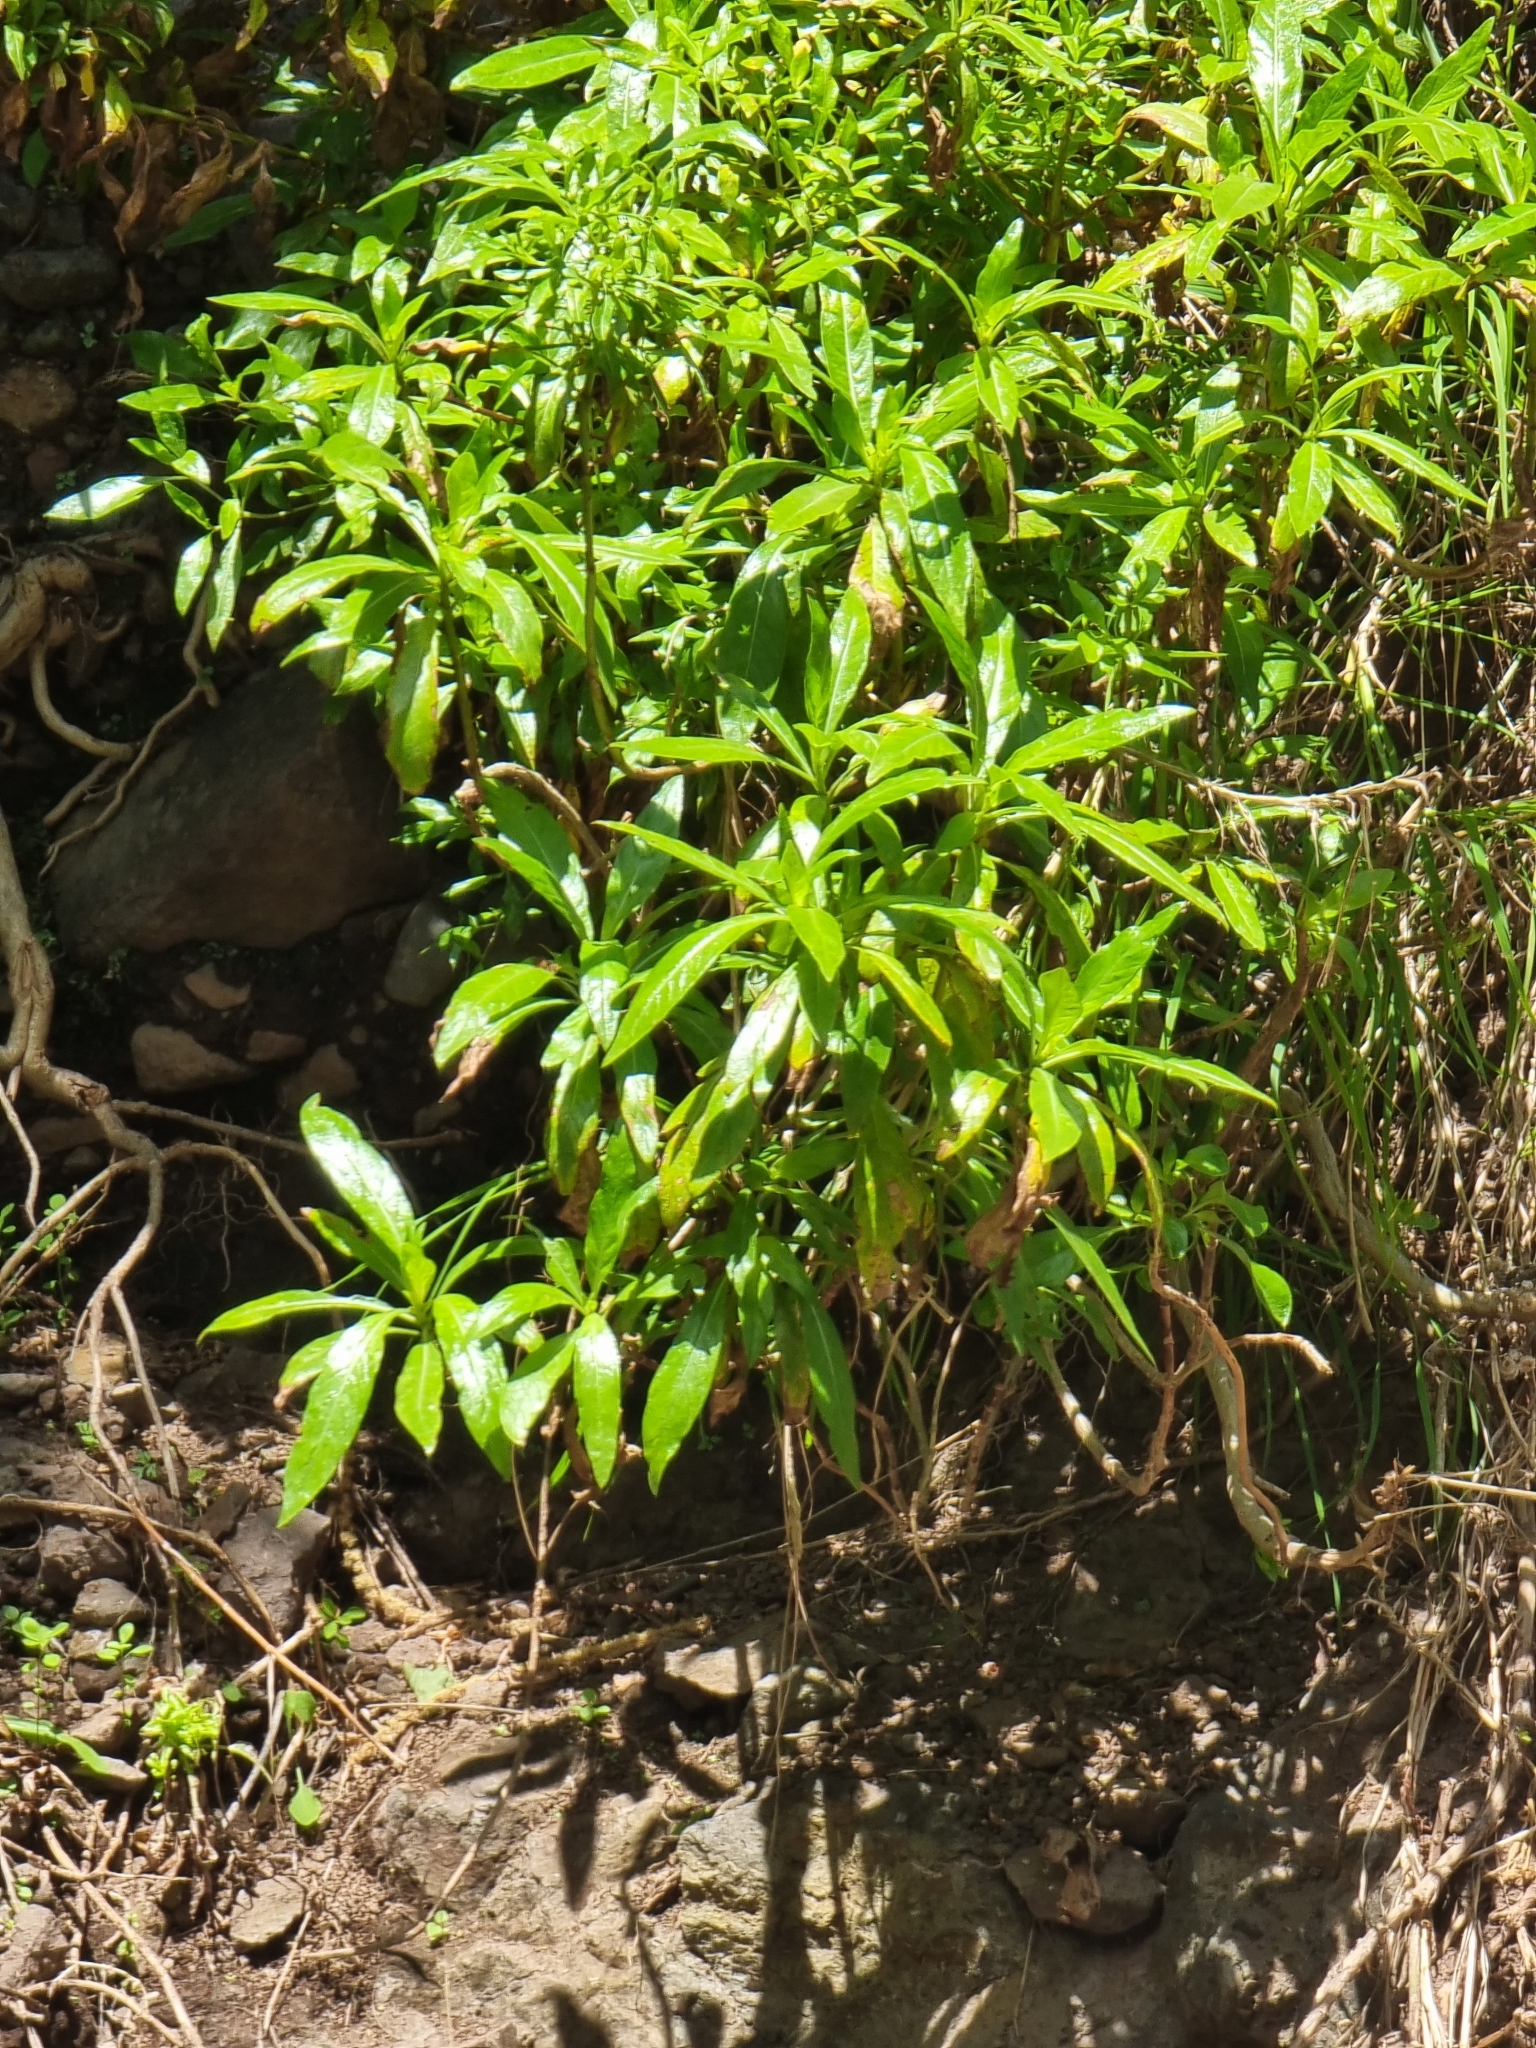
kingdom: Plantae
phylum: Tracheophyta
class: Magnoliopsida
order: Gentianales
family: Rubiaceae
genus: Phyllis
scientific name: Phyllis nobla
